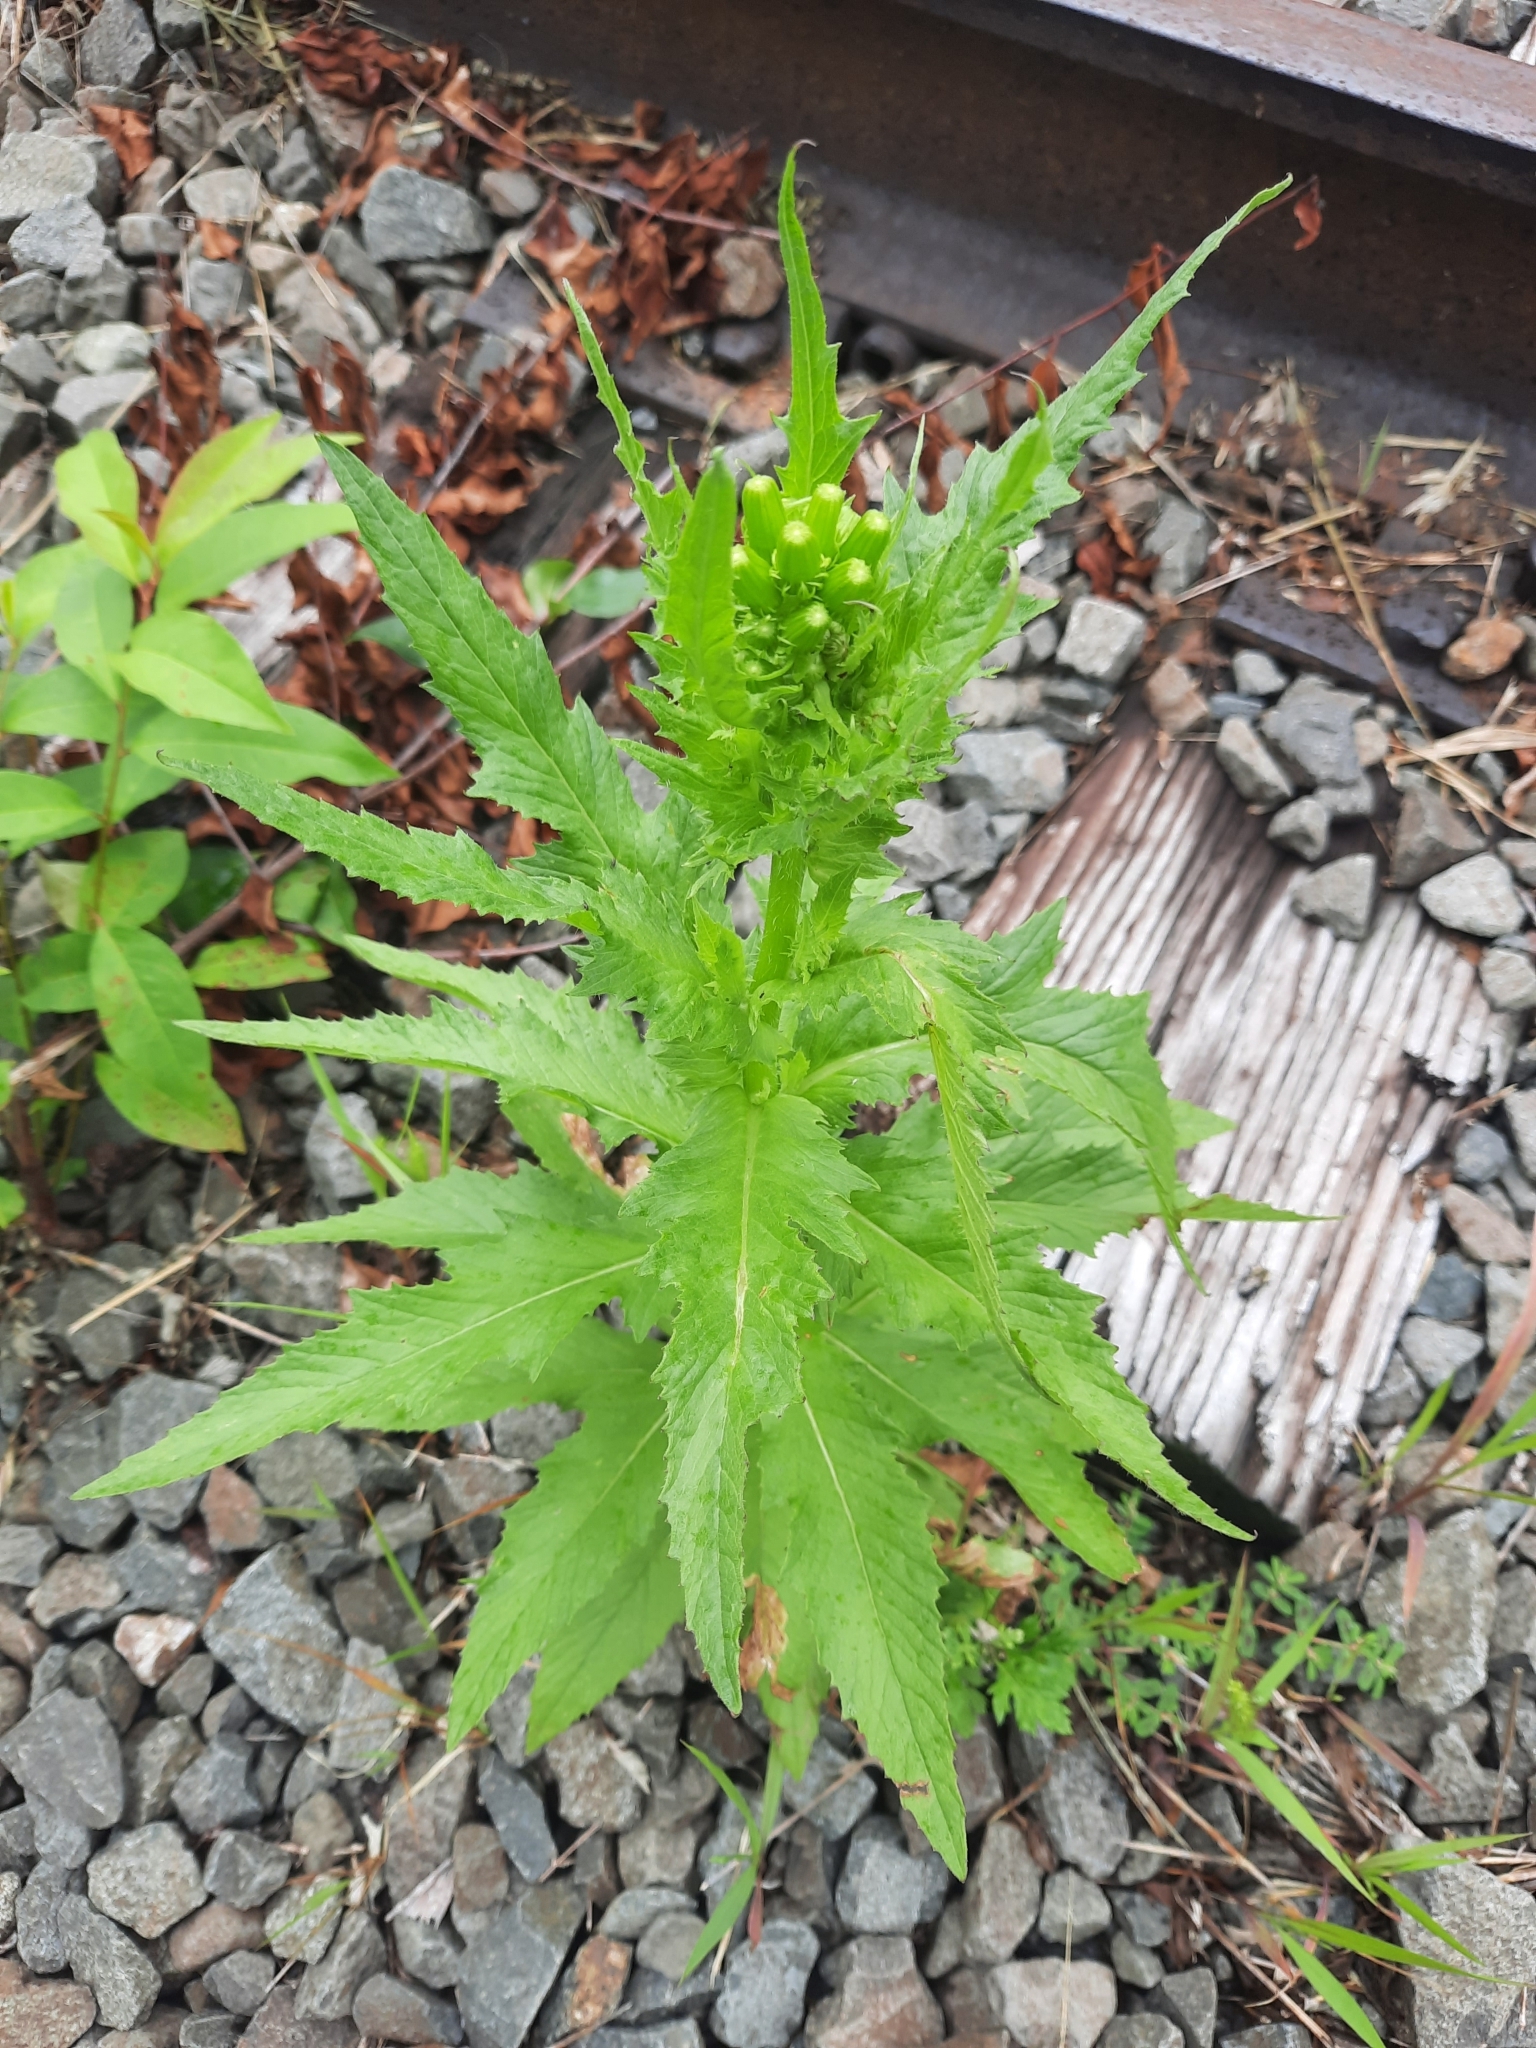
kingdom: Plantae
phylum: Tracheophyta
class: Magnoliopsida
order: Asterales
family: Asteraceae
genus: Erechtites
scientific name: Erechtites hieraciifolius
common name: American burnweed
